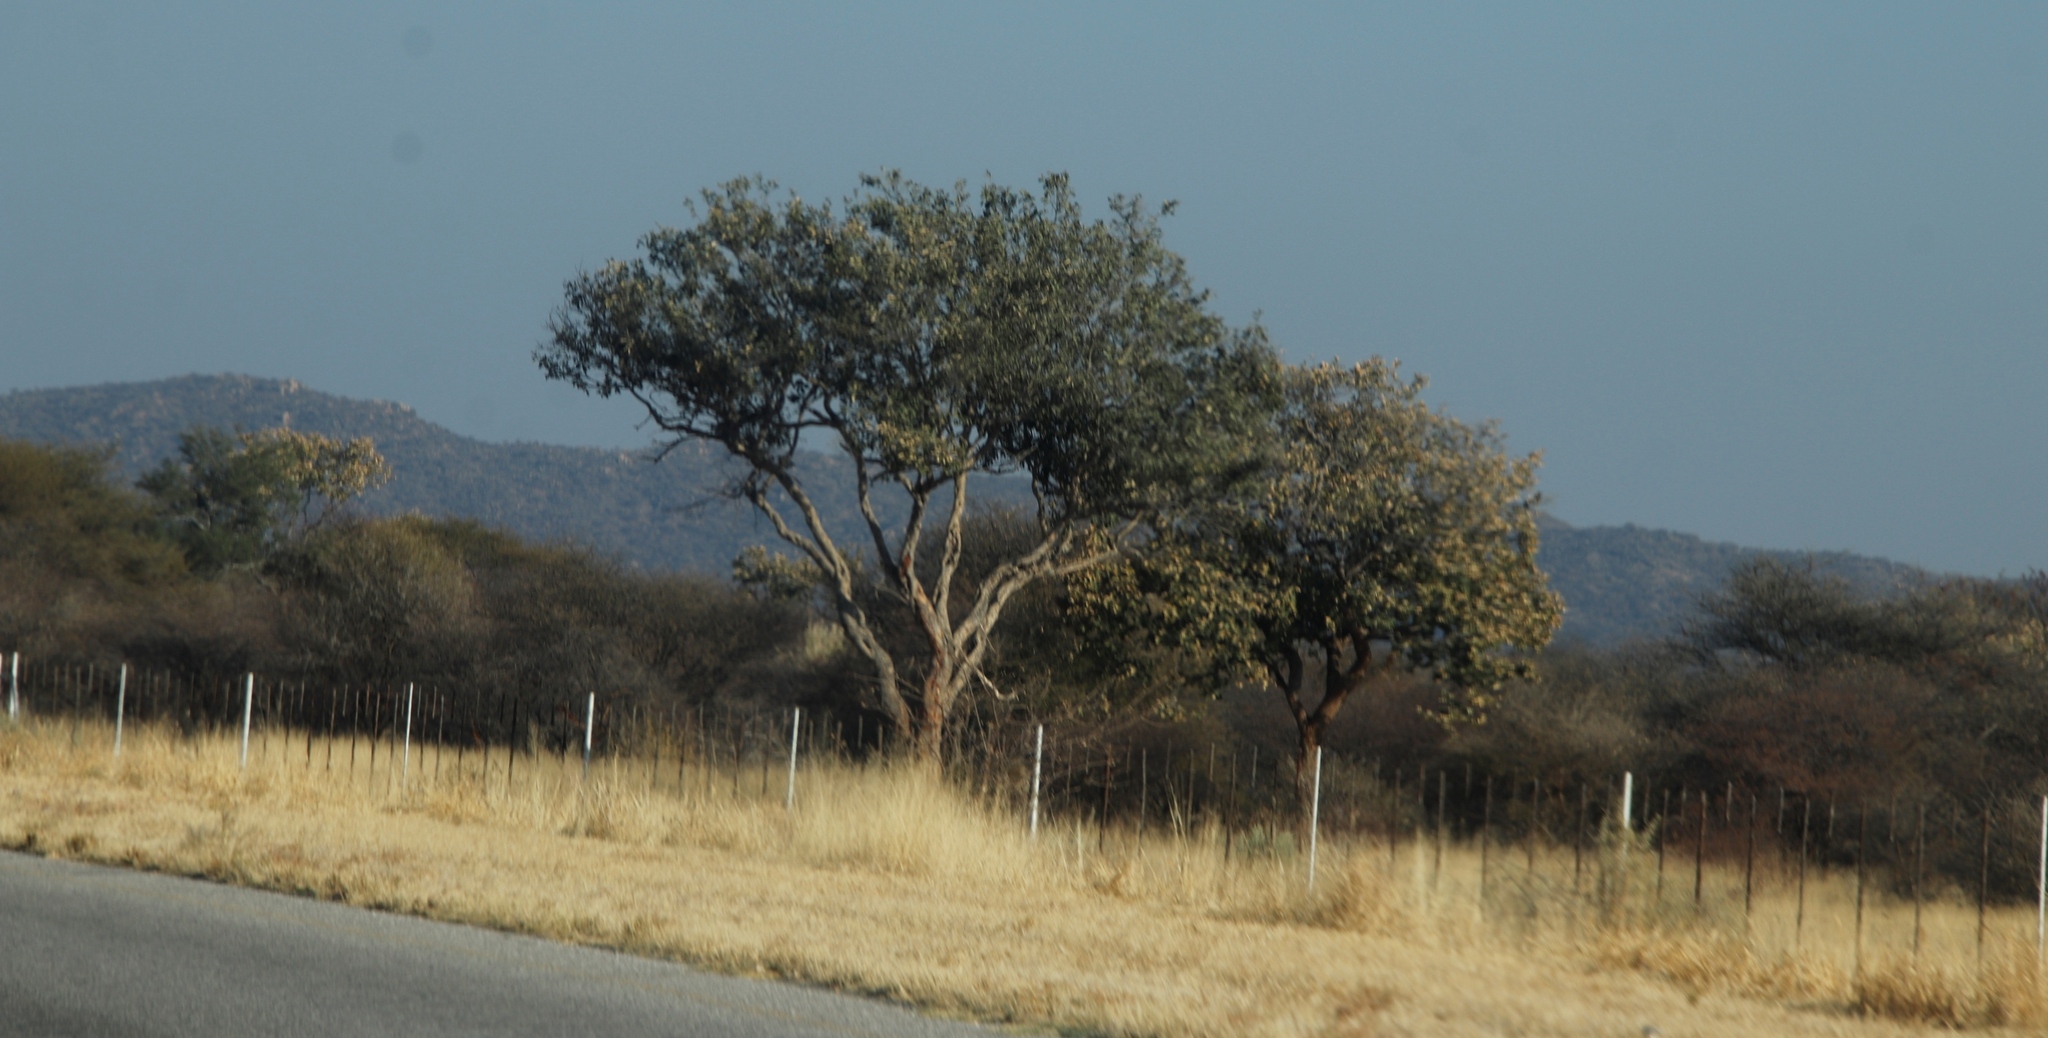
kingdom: Plantae
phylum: Tracheophyta
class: Magnoliopsida
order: Fabales
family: Fabaceae
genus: Philenoptera
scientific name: Philenoptera nelsii
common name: Kalahari apple-leaf
